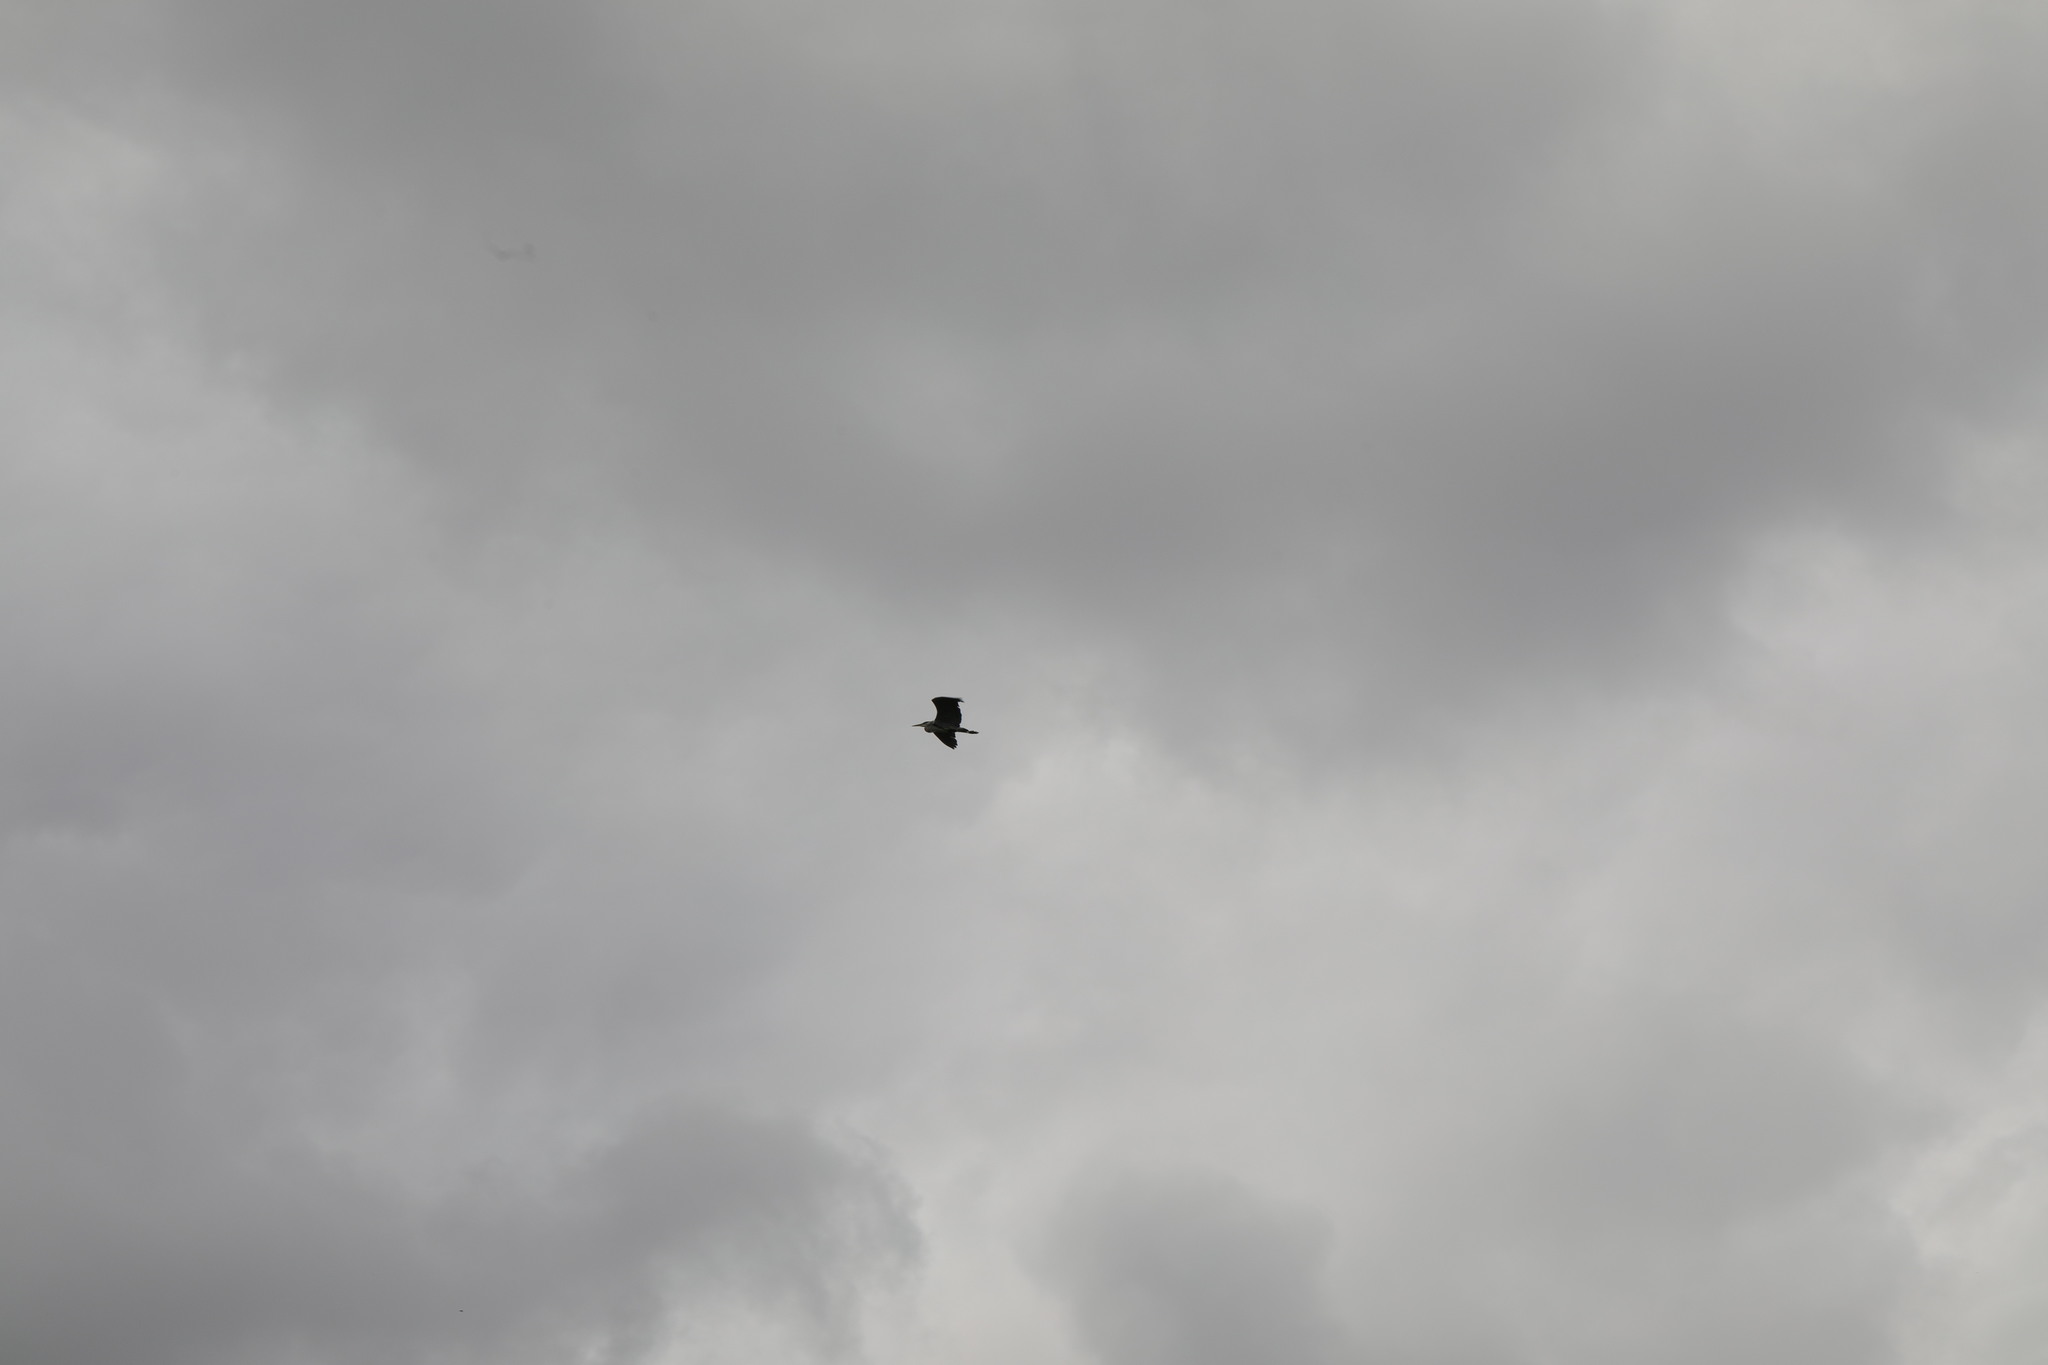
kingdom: Animalia
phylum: Chordata
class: Aves
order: Pelecaniformes
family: Ardeidae
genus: Ardea
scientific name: Ardea cinerea
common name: Grey heron
